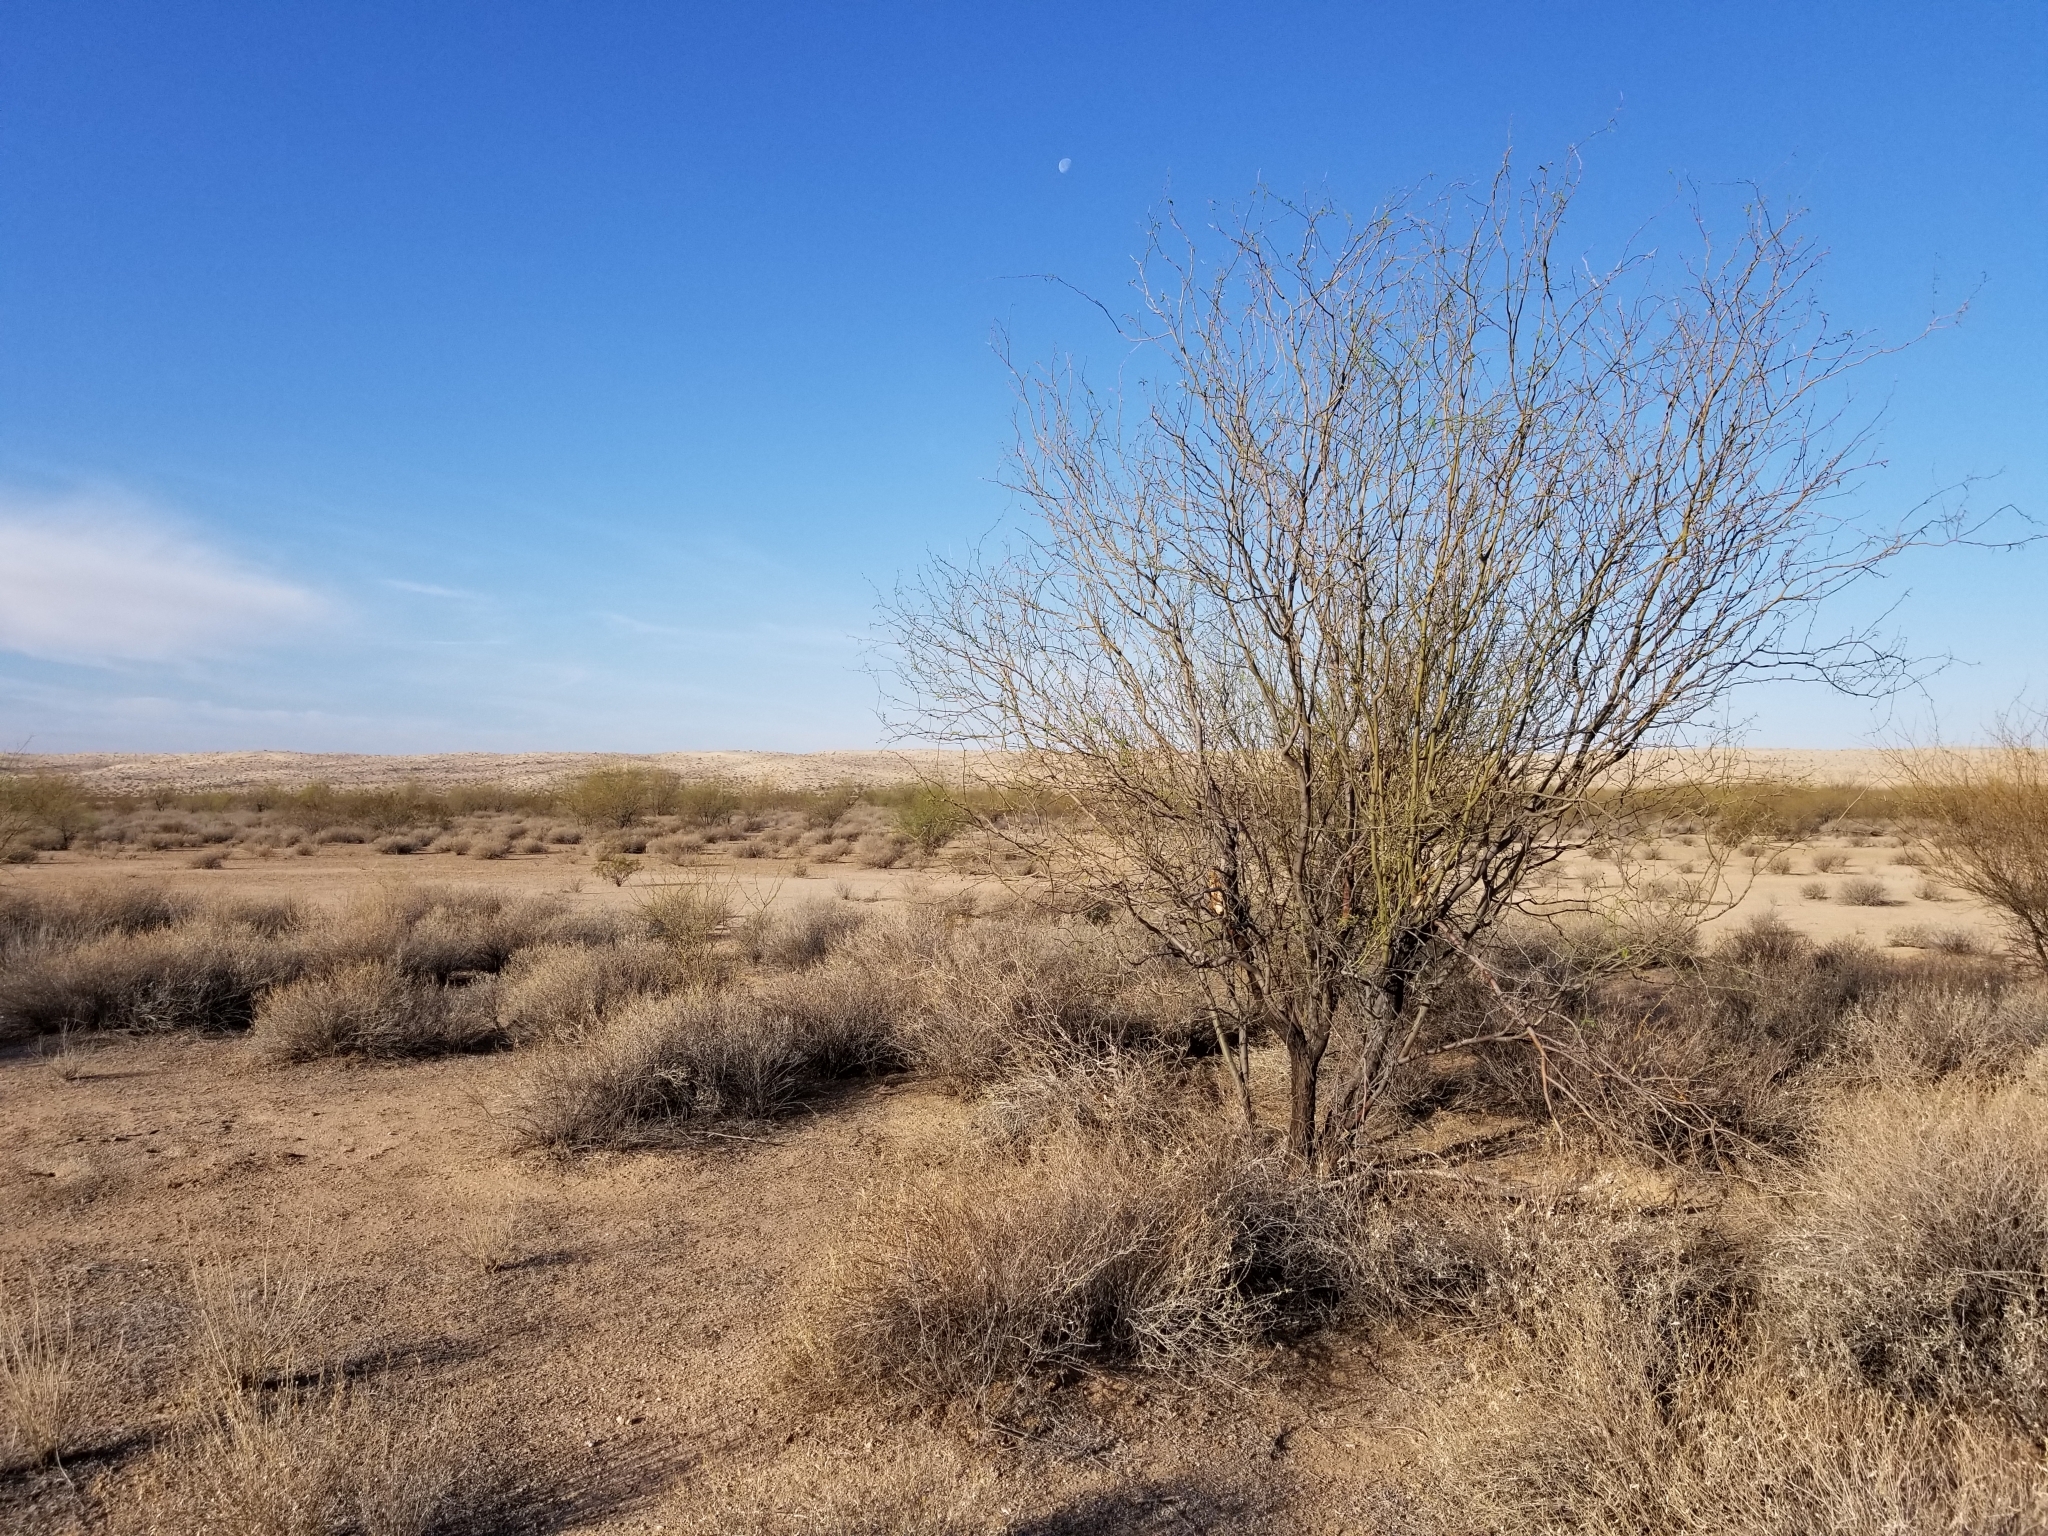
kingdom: Plantae
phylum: Tracheophyta
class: Magnoliopsida
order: Fabales
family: Fabaceae
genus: Prosopis
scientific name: Prosopis velutina
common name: Velvet mesquite
